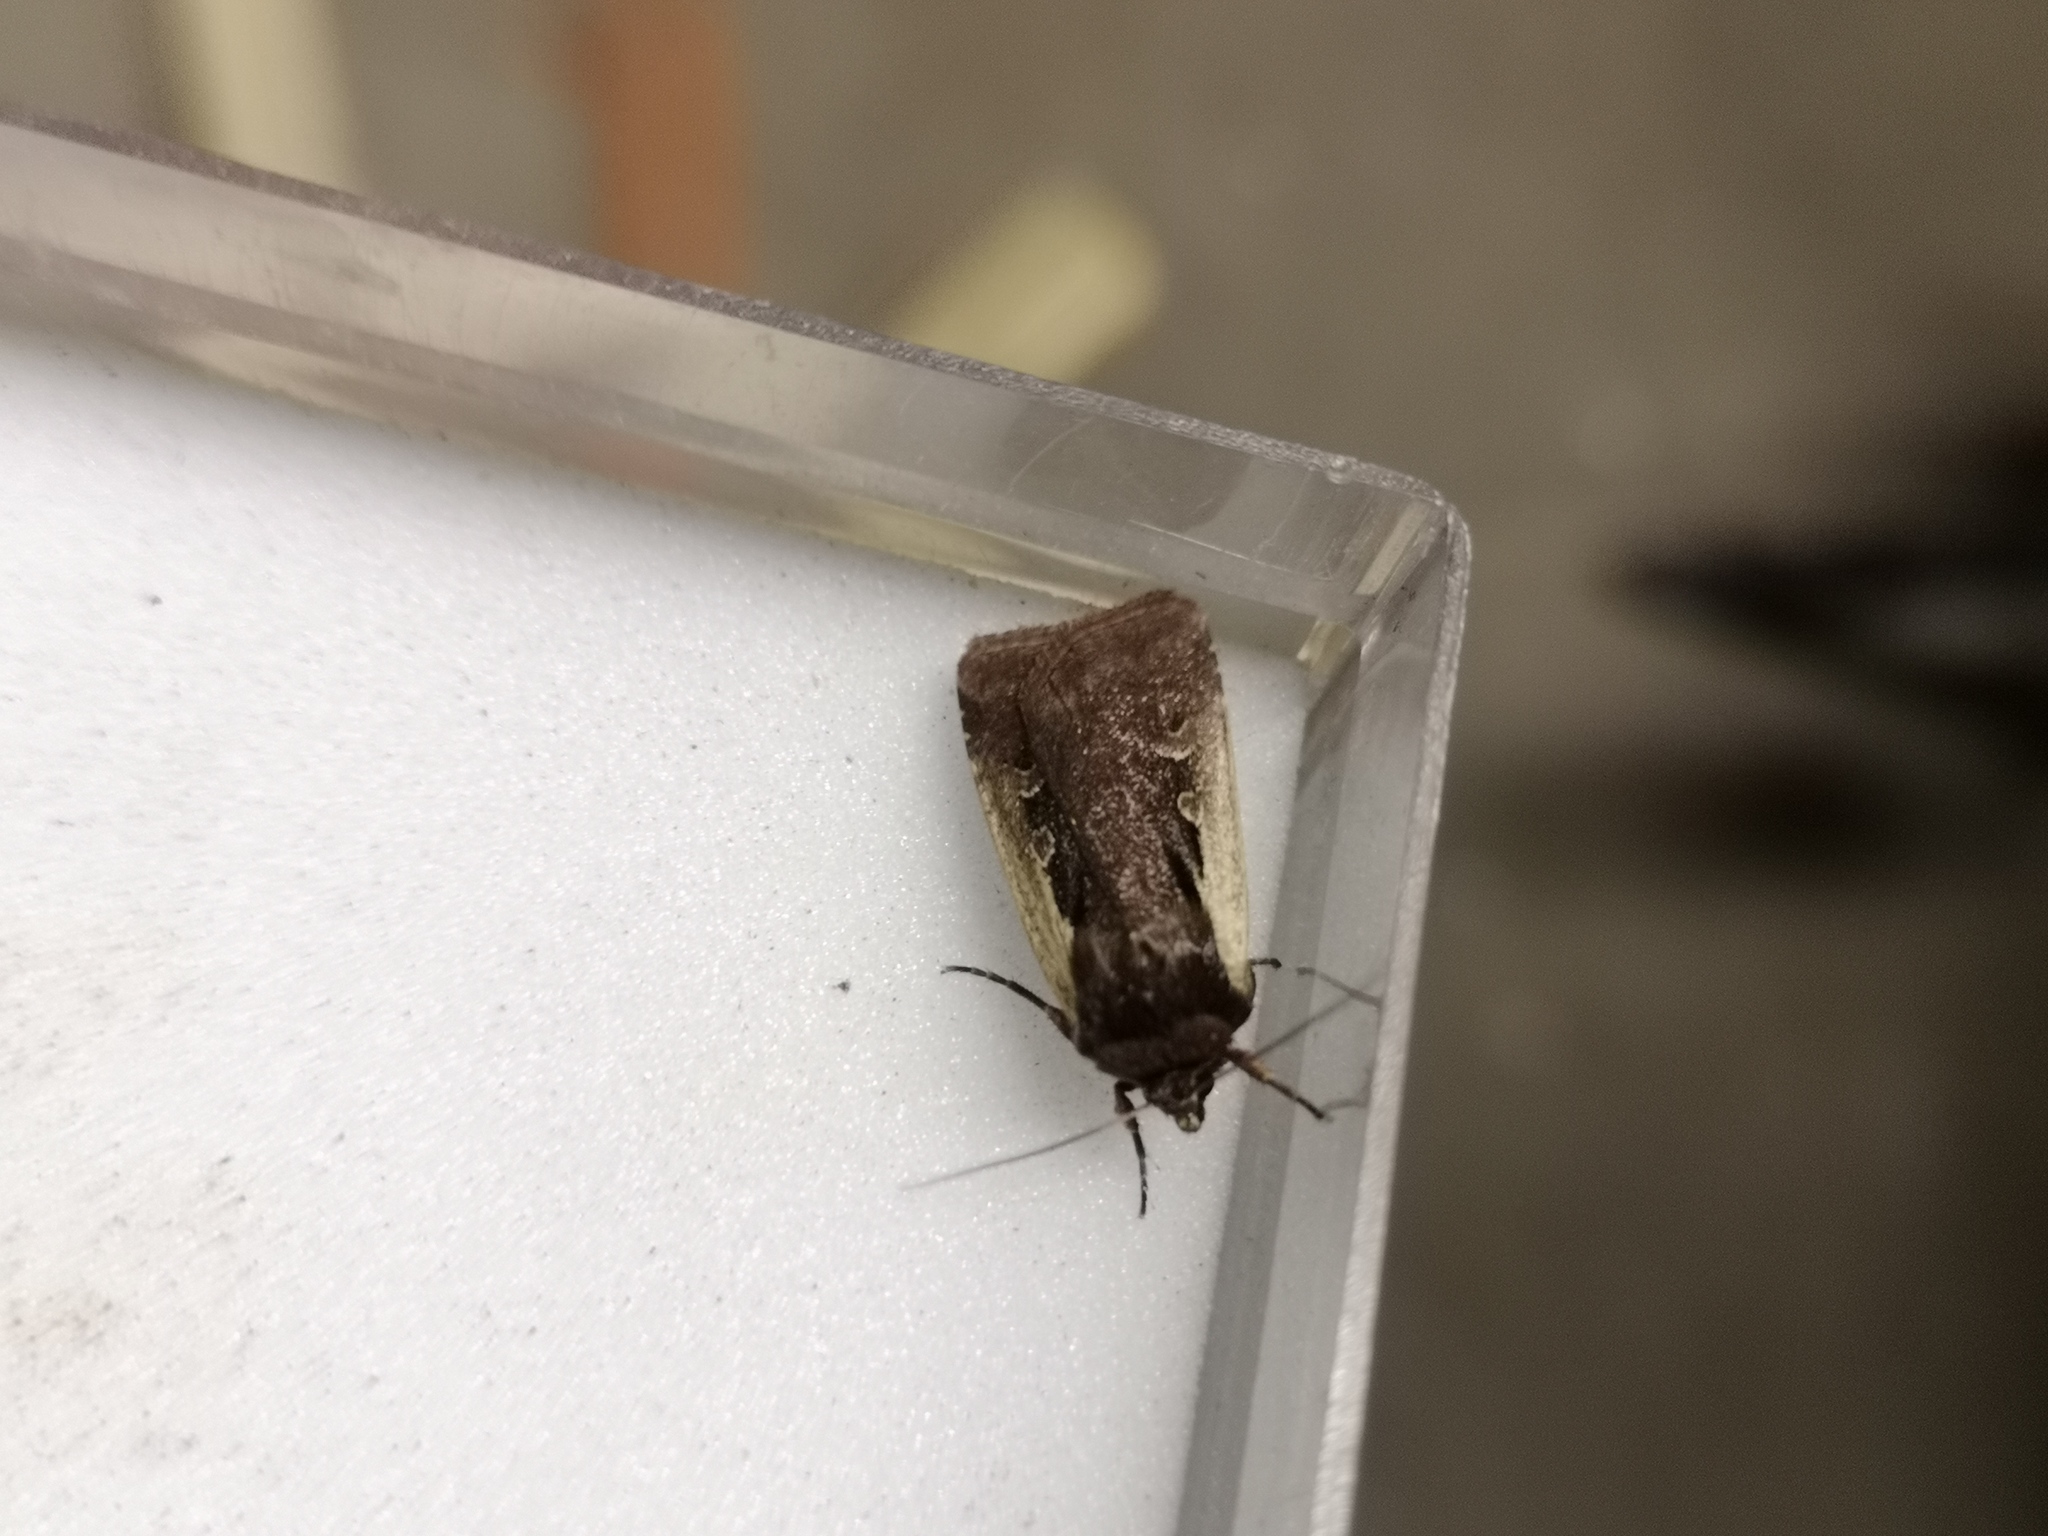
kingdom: Animalia
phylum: Arthropoda
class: Insecta
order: Lepidoptera
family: Noctuidae
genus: Ochropleura
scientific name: Ochropleura plecta
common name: Flame shoulder
